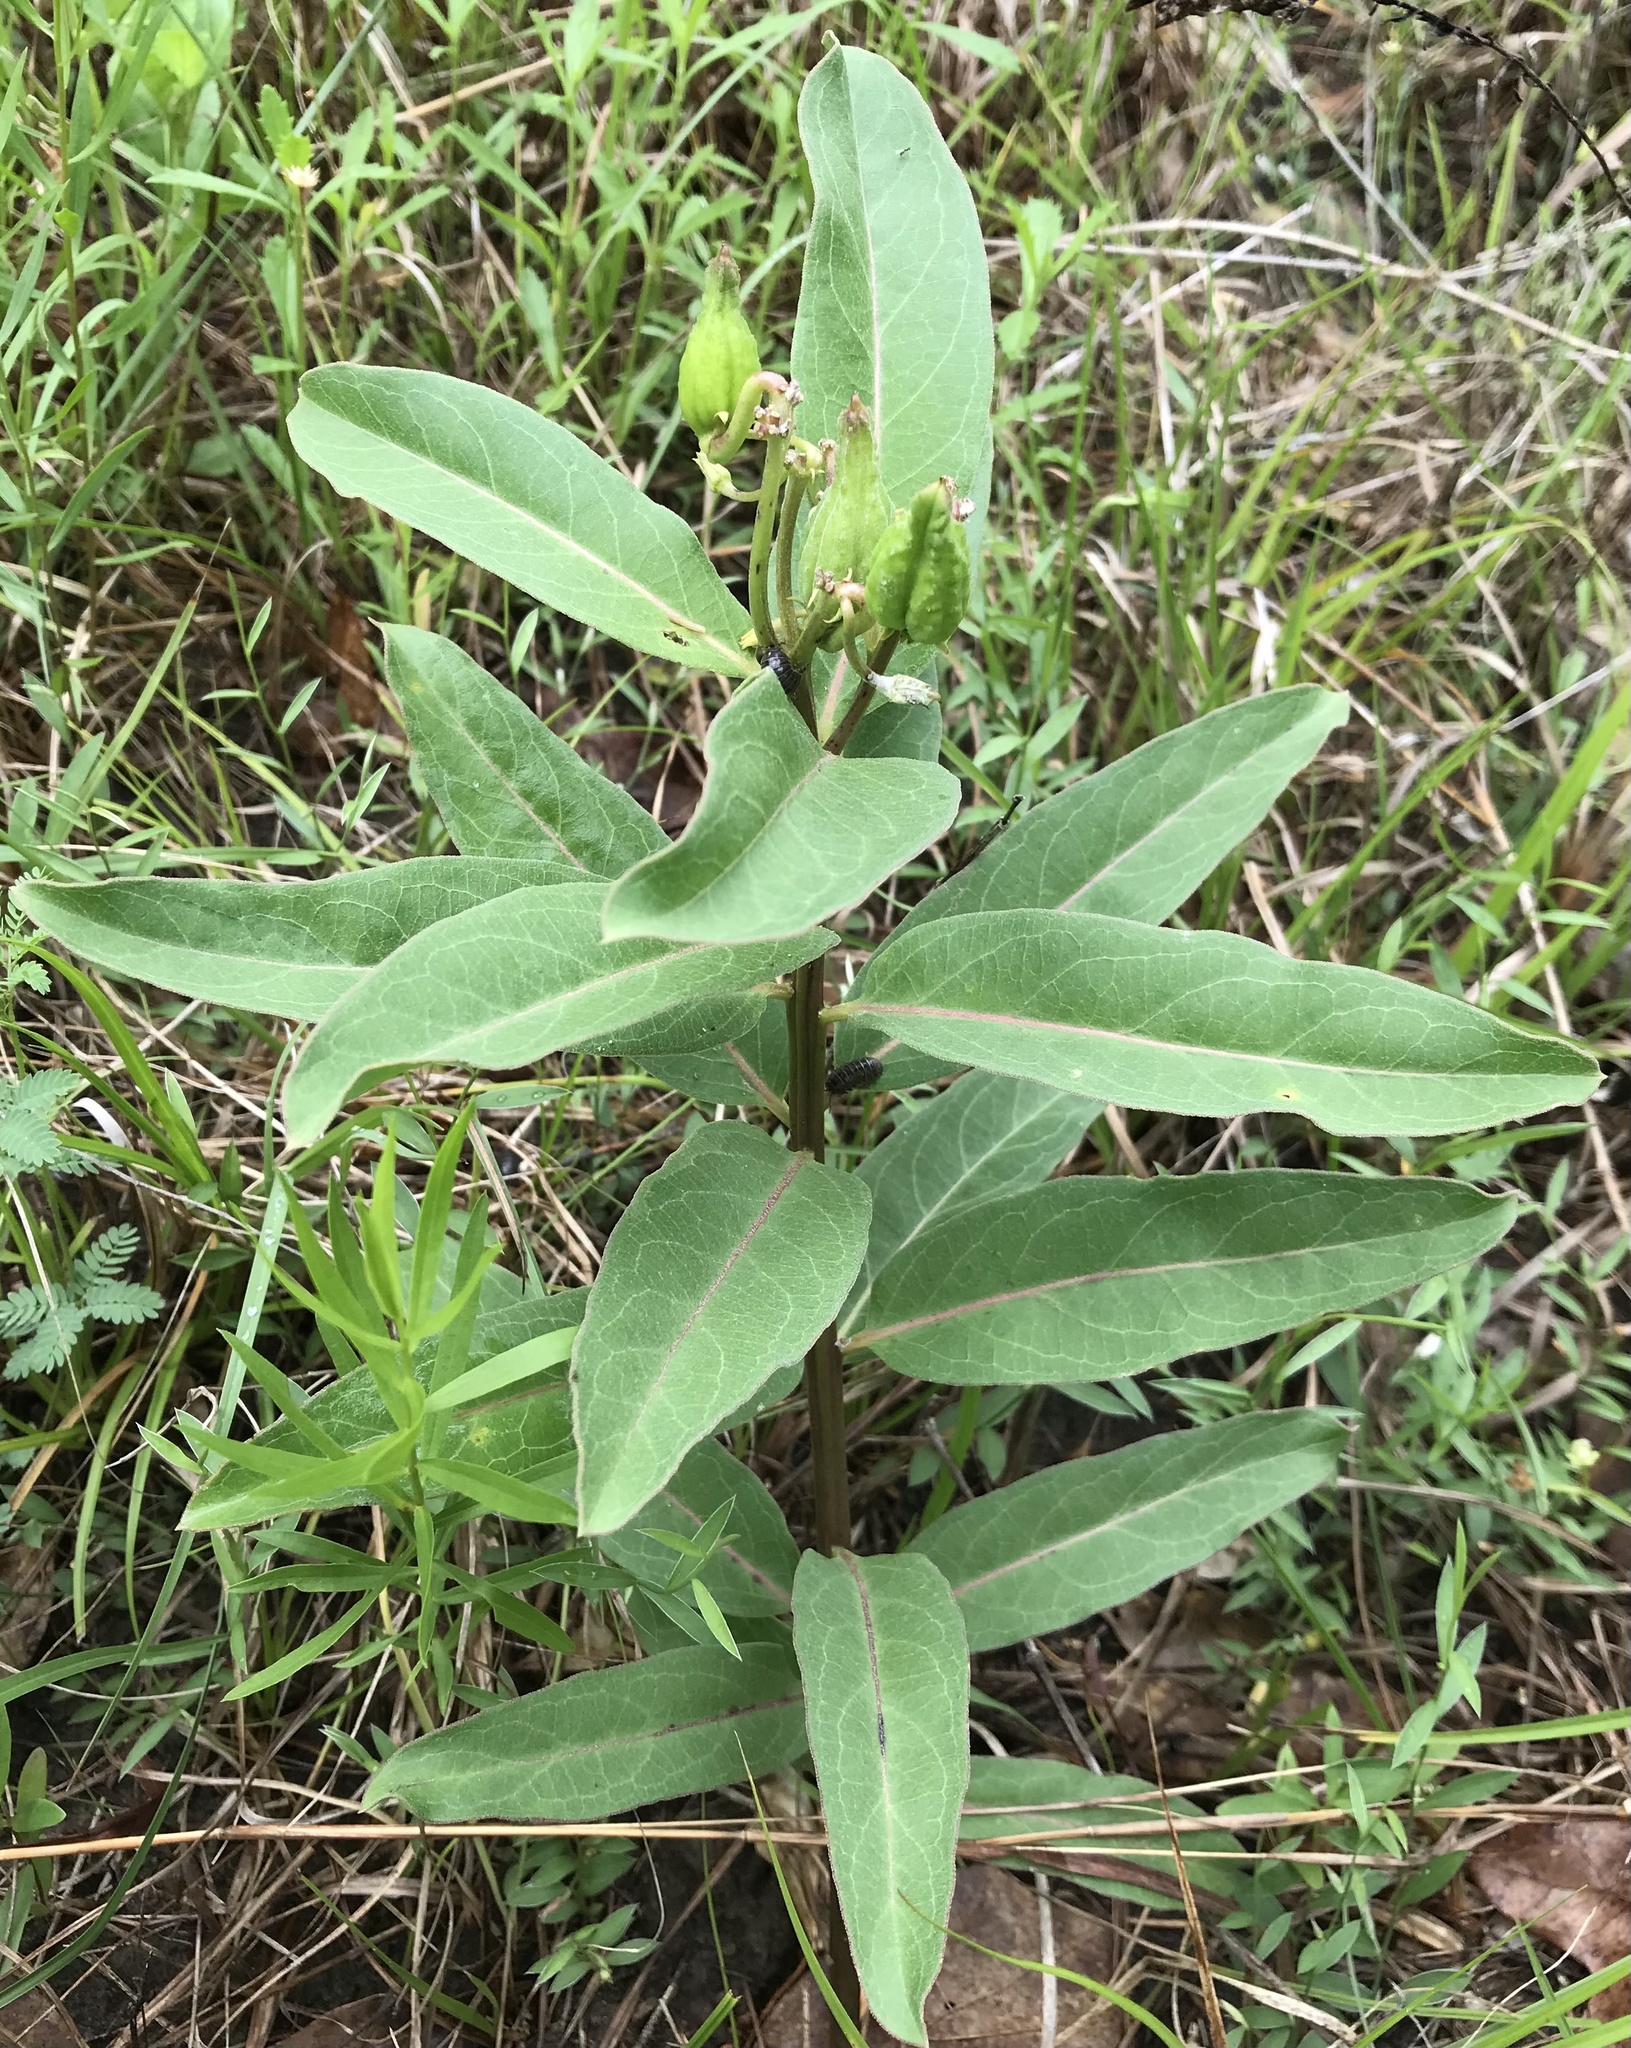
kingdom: Plantae
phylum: Tracheophyta
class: Magnoliopsida
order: Gentianales
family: Apocynaceae
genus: Asclepias
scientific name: Asclepias viridis
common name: Antelope-horns
